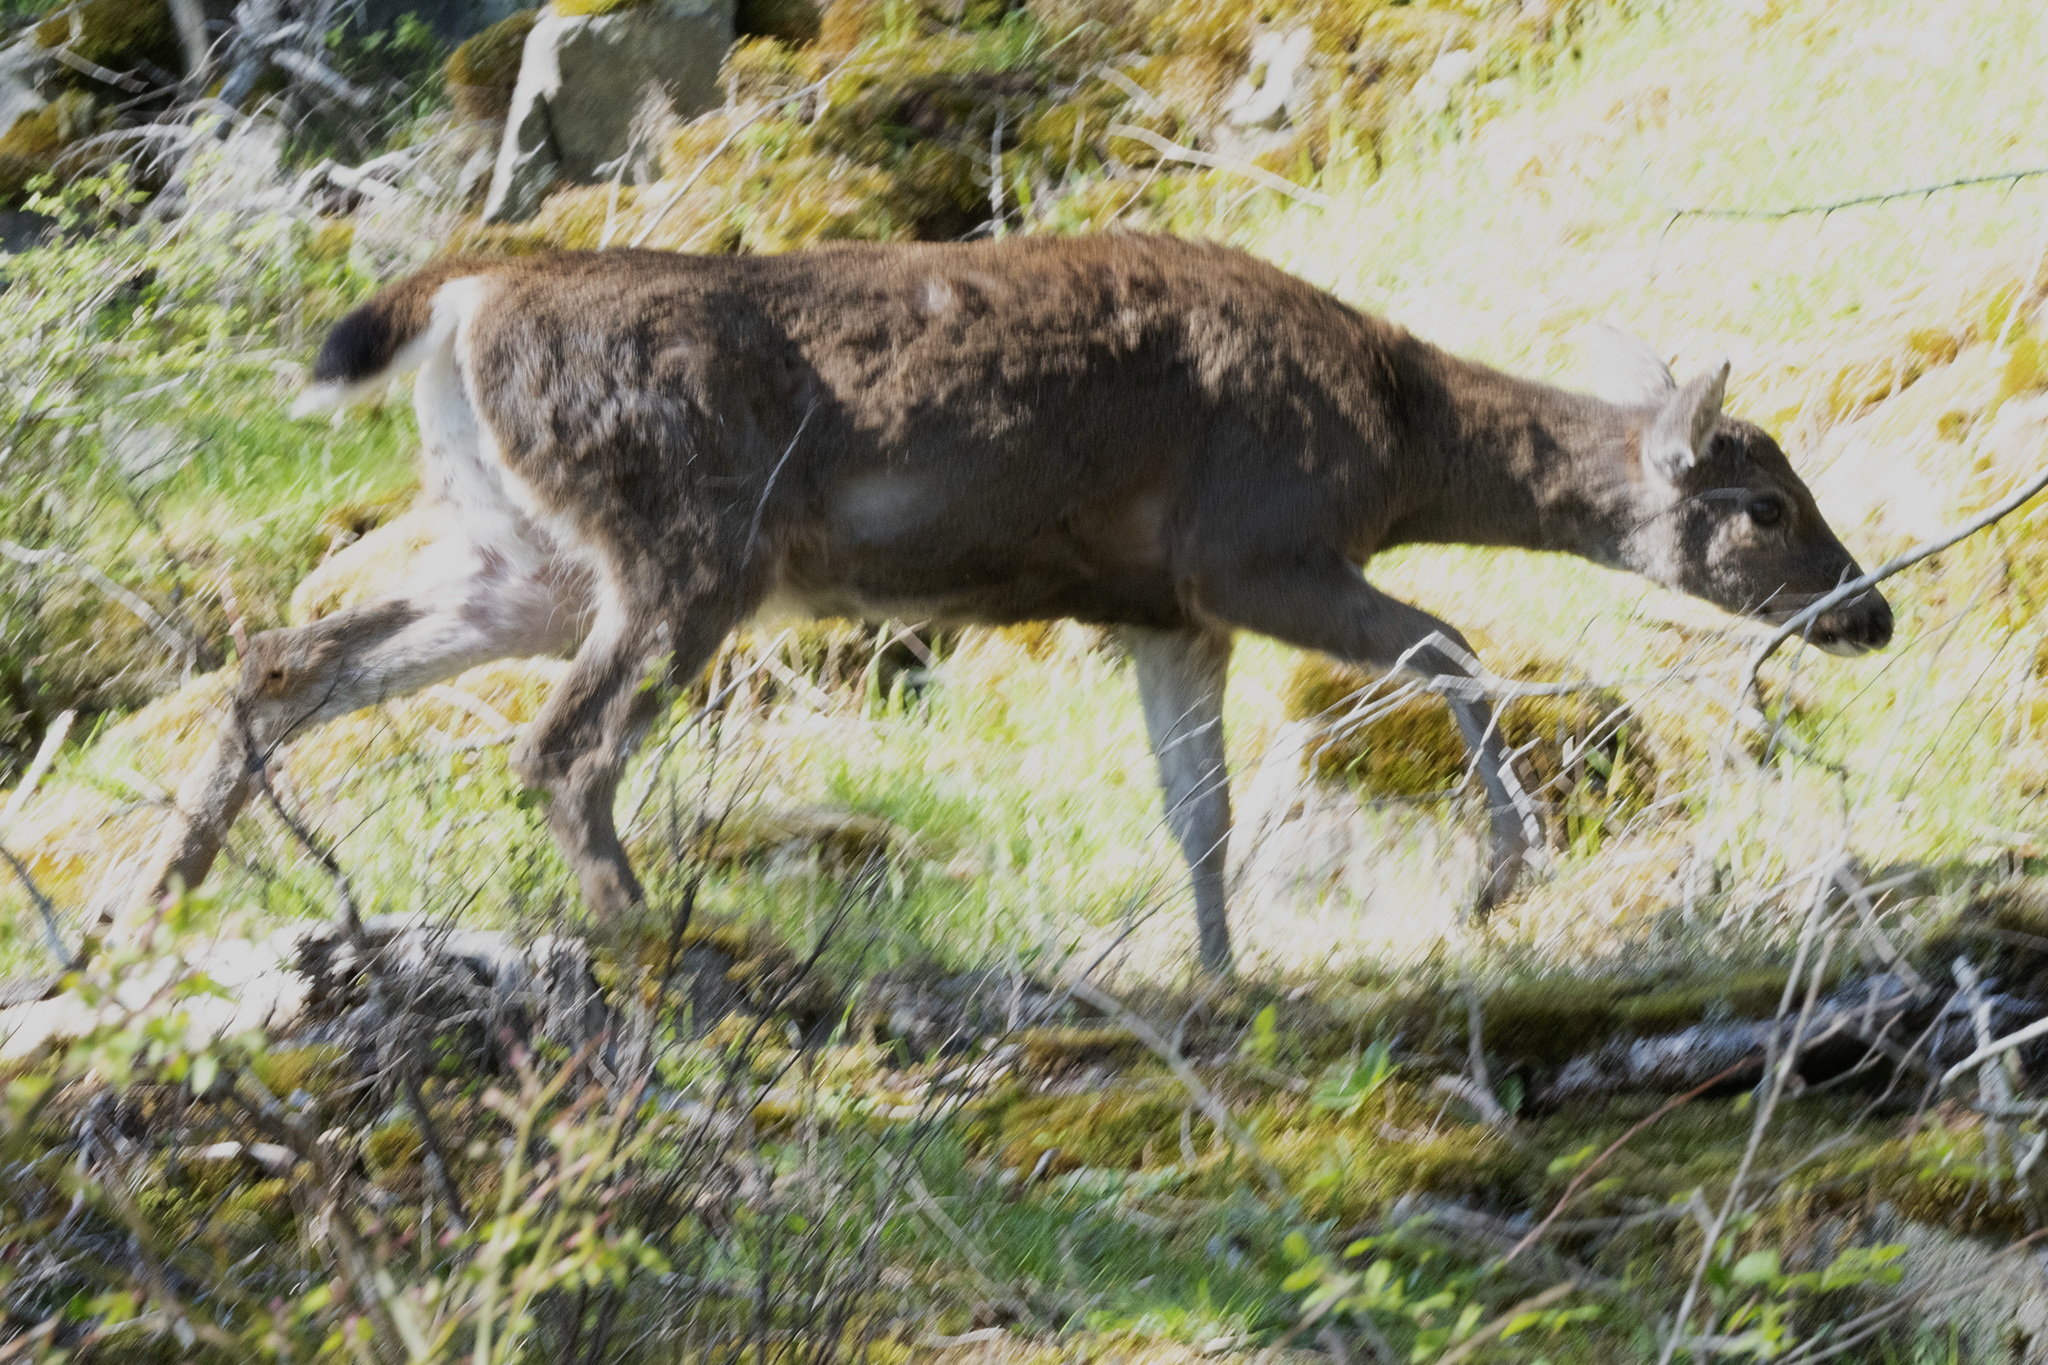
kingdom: Animalia
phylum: Chordata
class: Mammalia
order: Artiodactyla
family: Cervidae
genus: Odocoileus
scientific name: Odocoileus hemionus
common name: Mule deer
